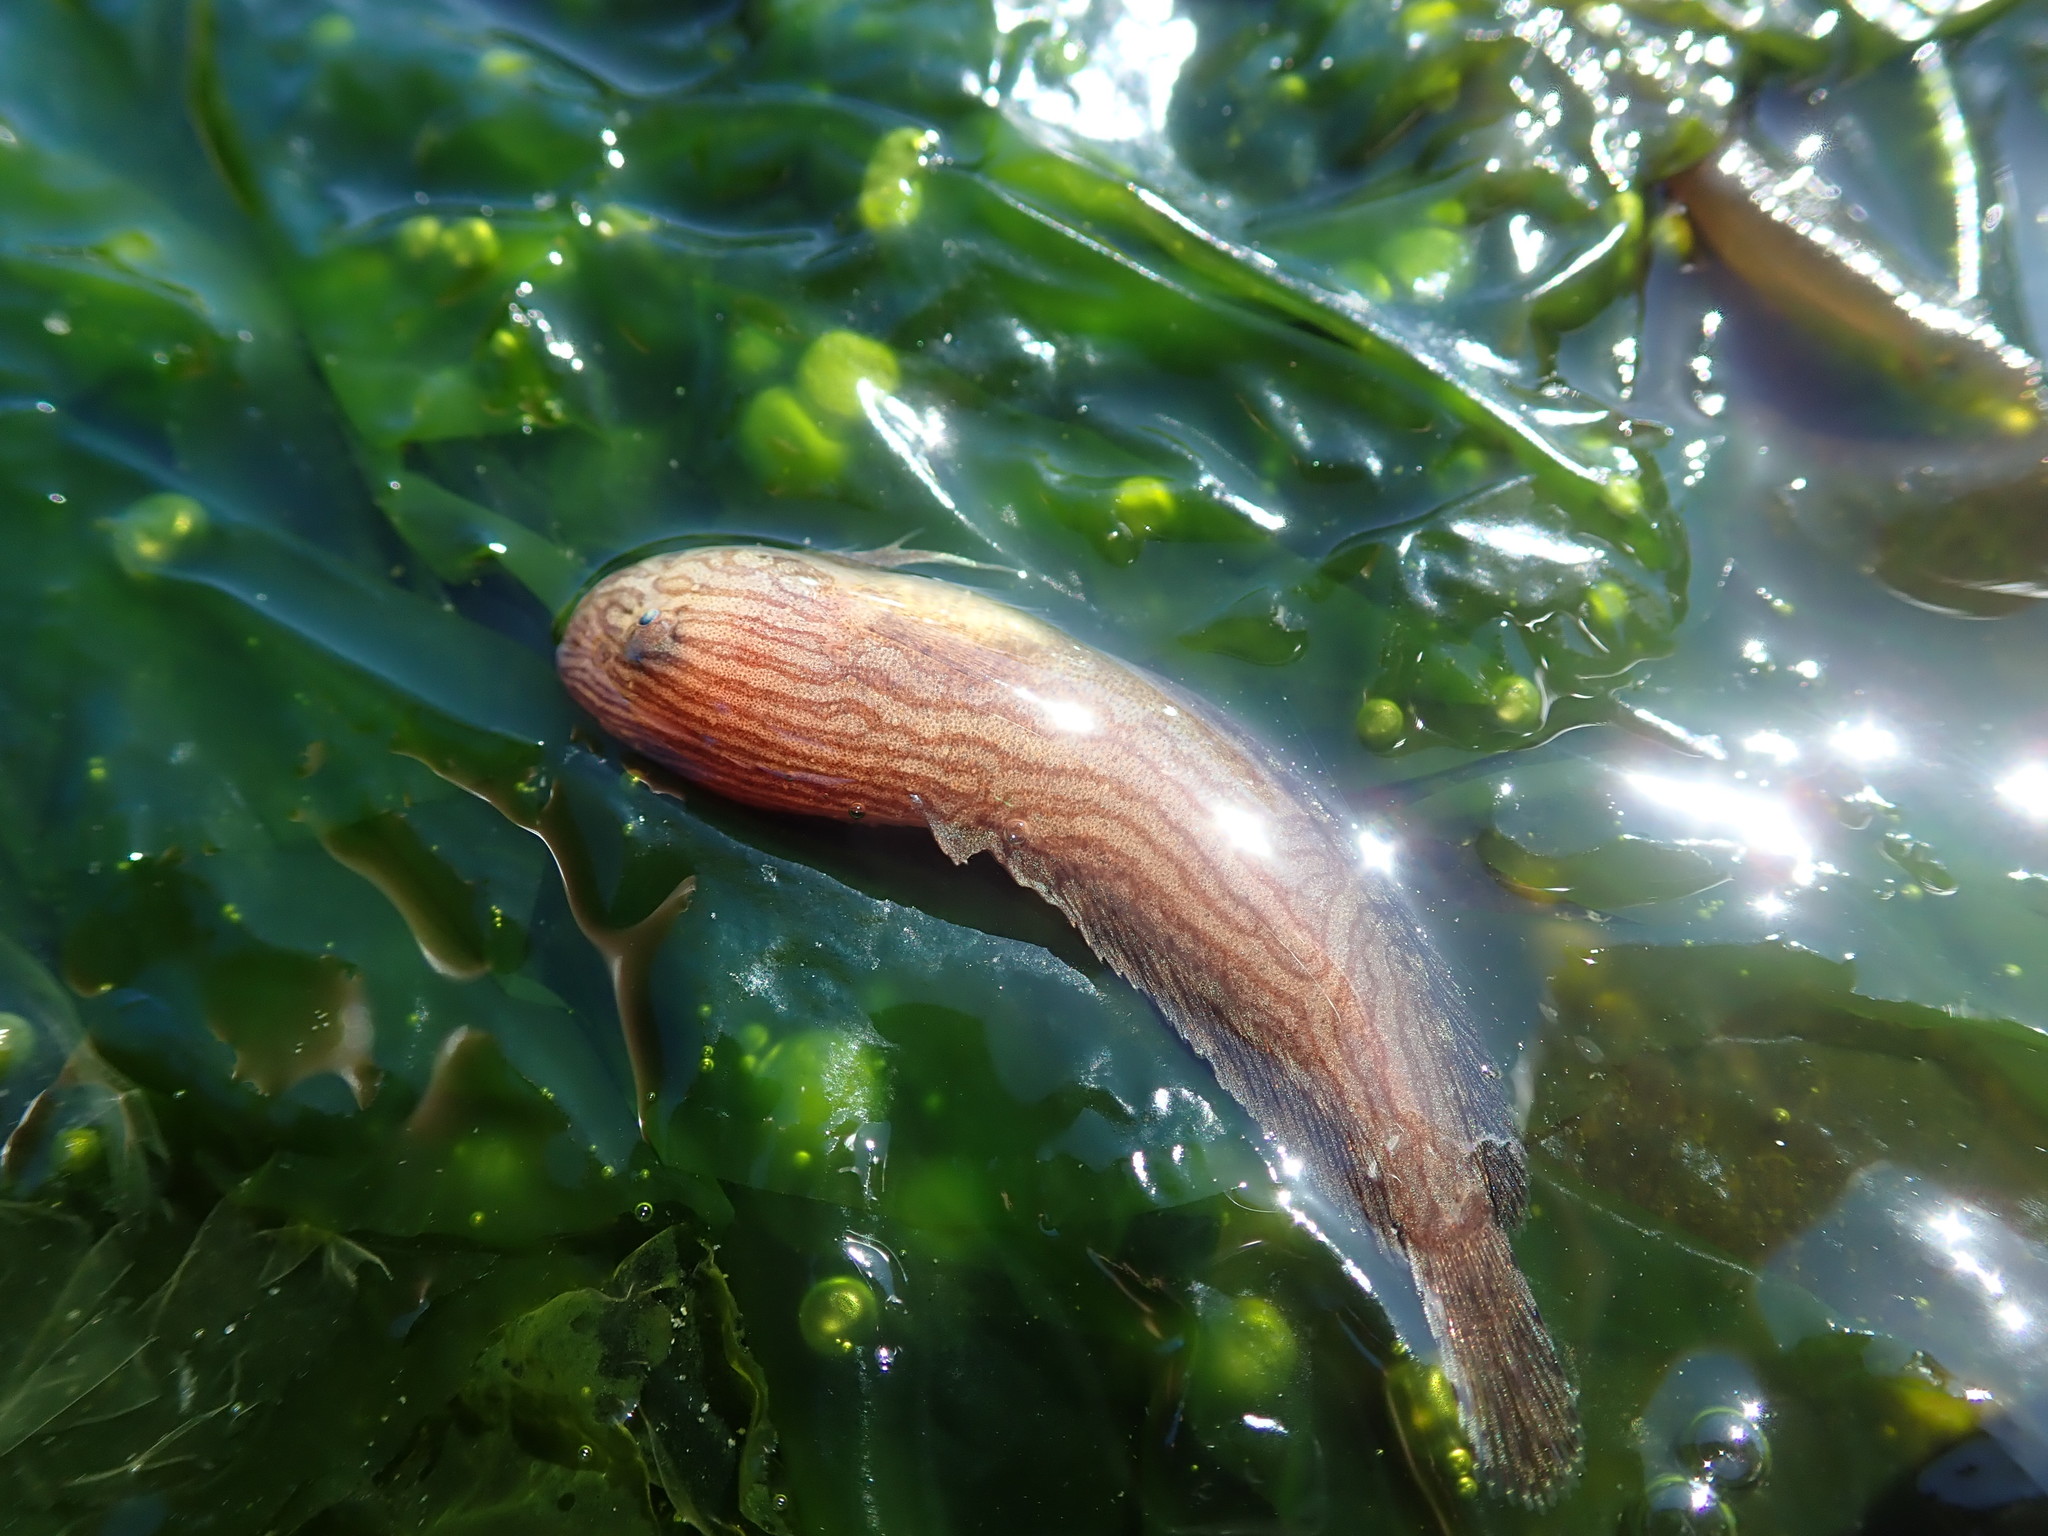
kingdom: Animalia
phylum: Chordata
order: Scorpaeniformes
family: Liparidae
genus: Liparis
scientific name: Liparis dennyi
